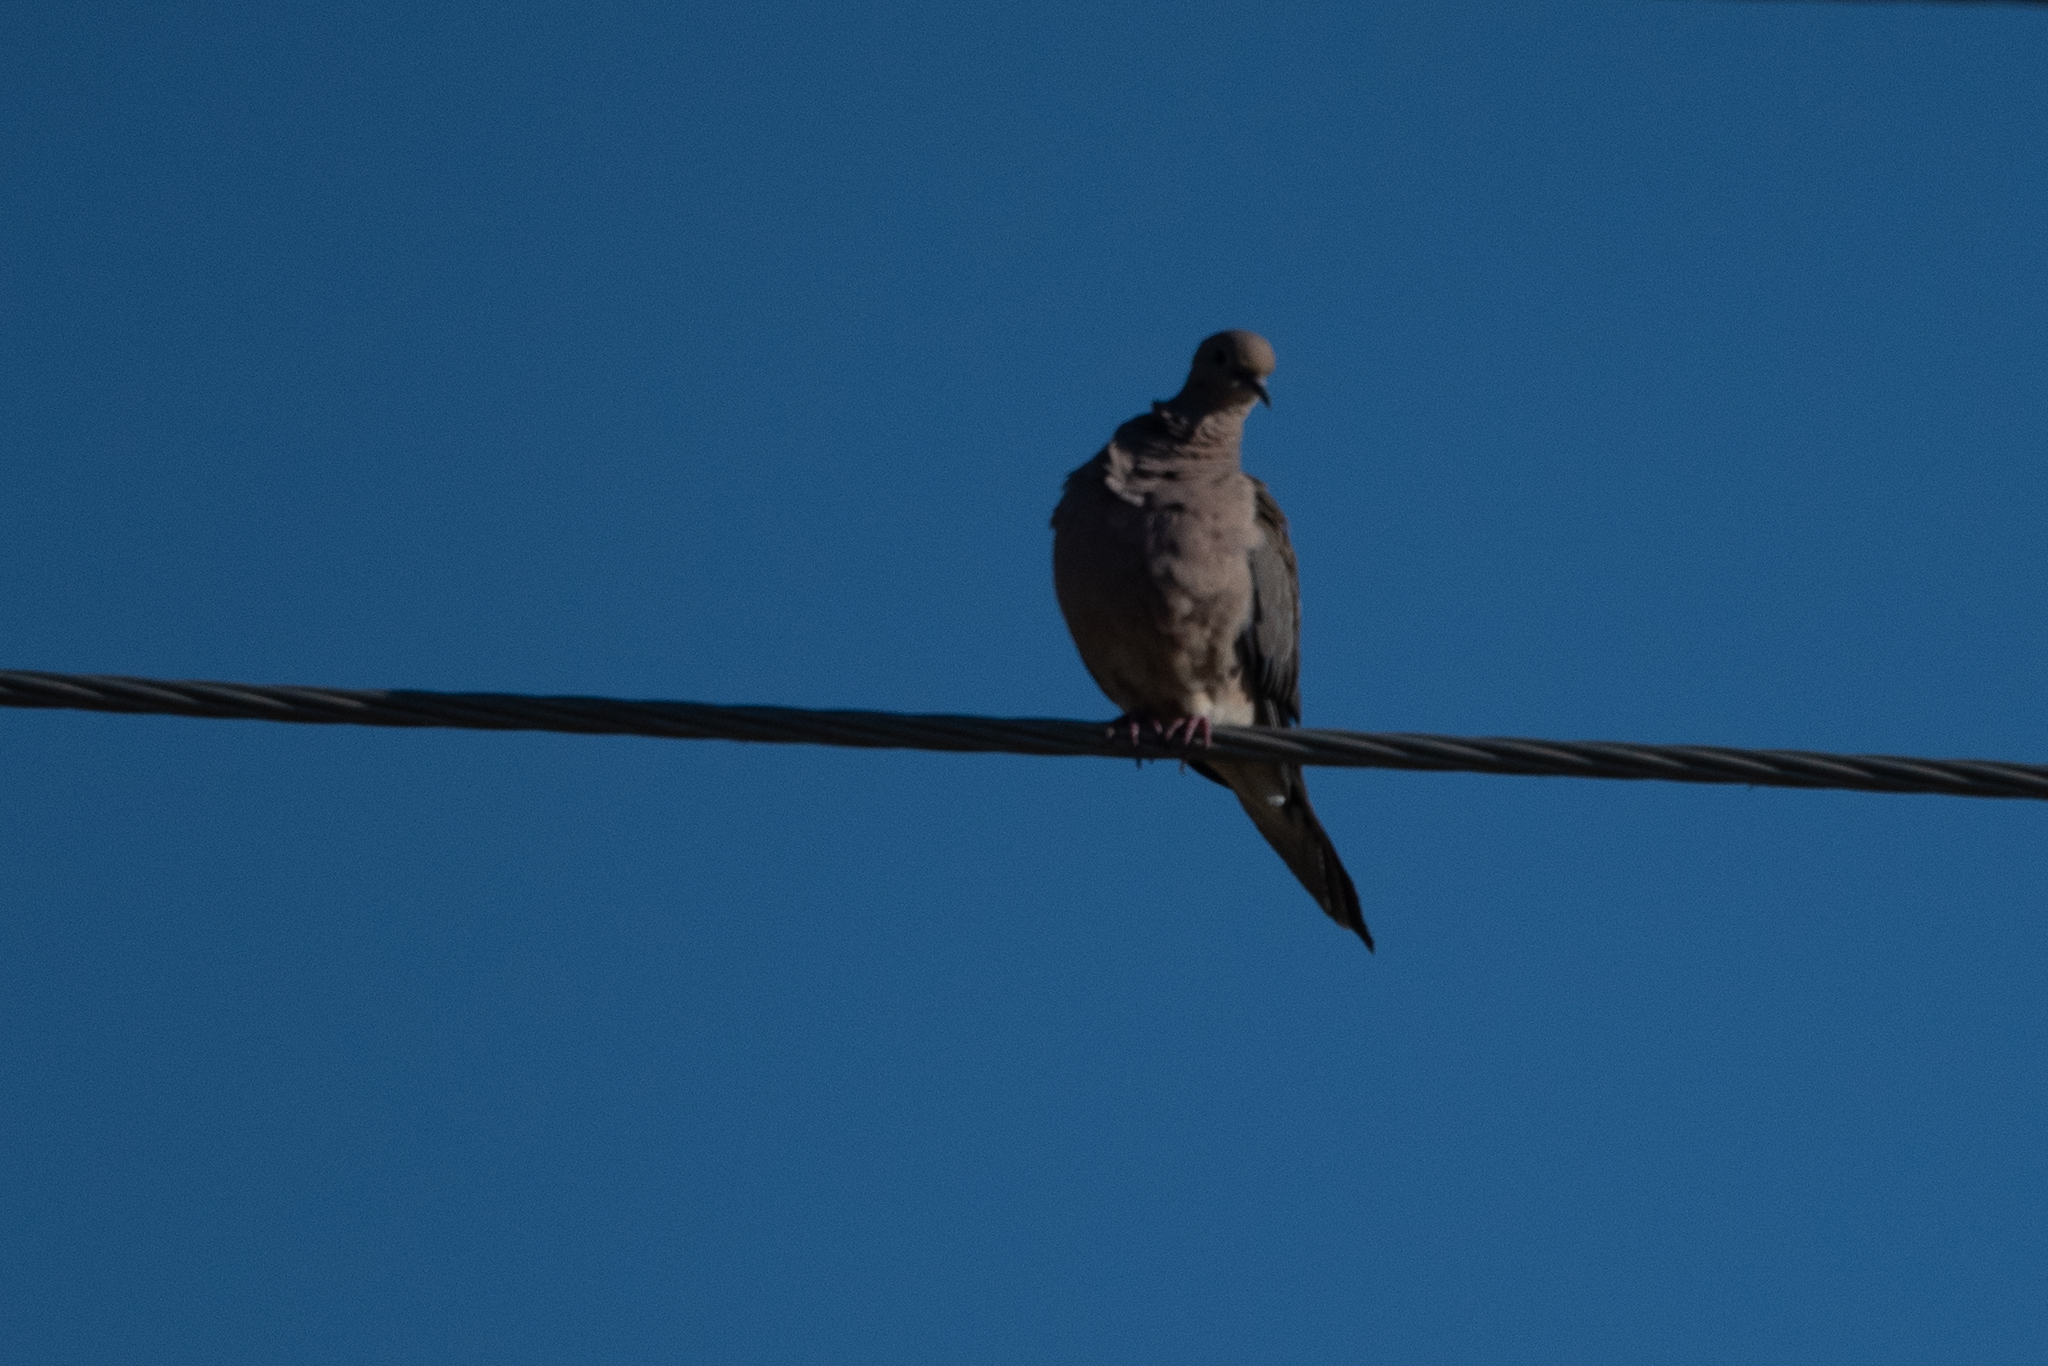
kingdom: Animalia
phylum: Chordata
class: Aves
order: Columbiformes
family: Columbidae
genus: Zenaida
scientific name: Zenaida macroura
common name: Mourning dove
